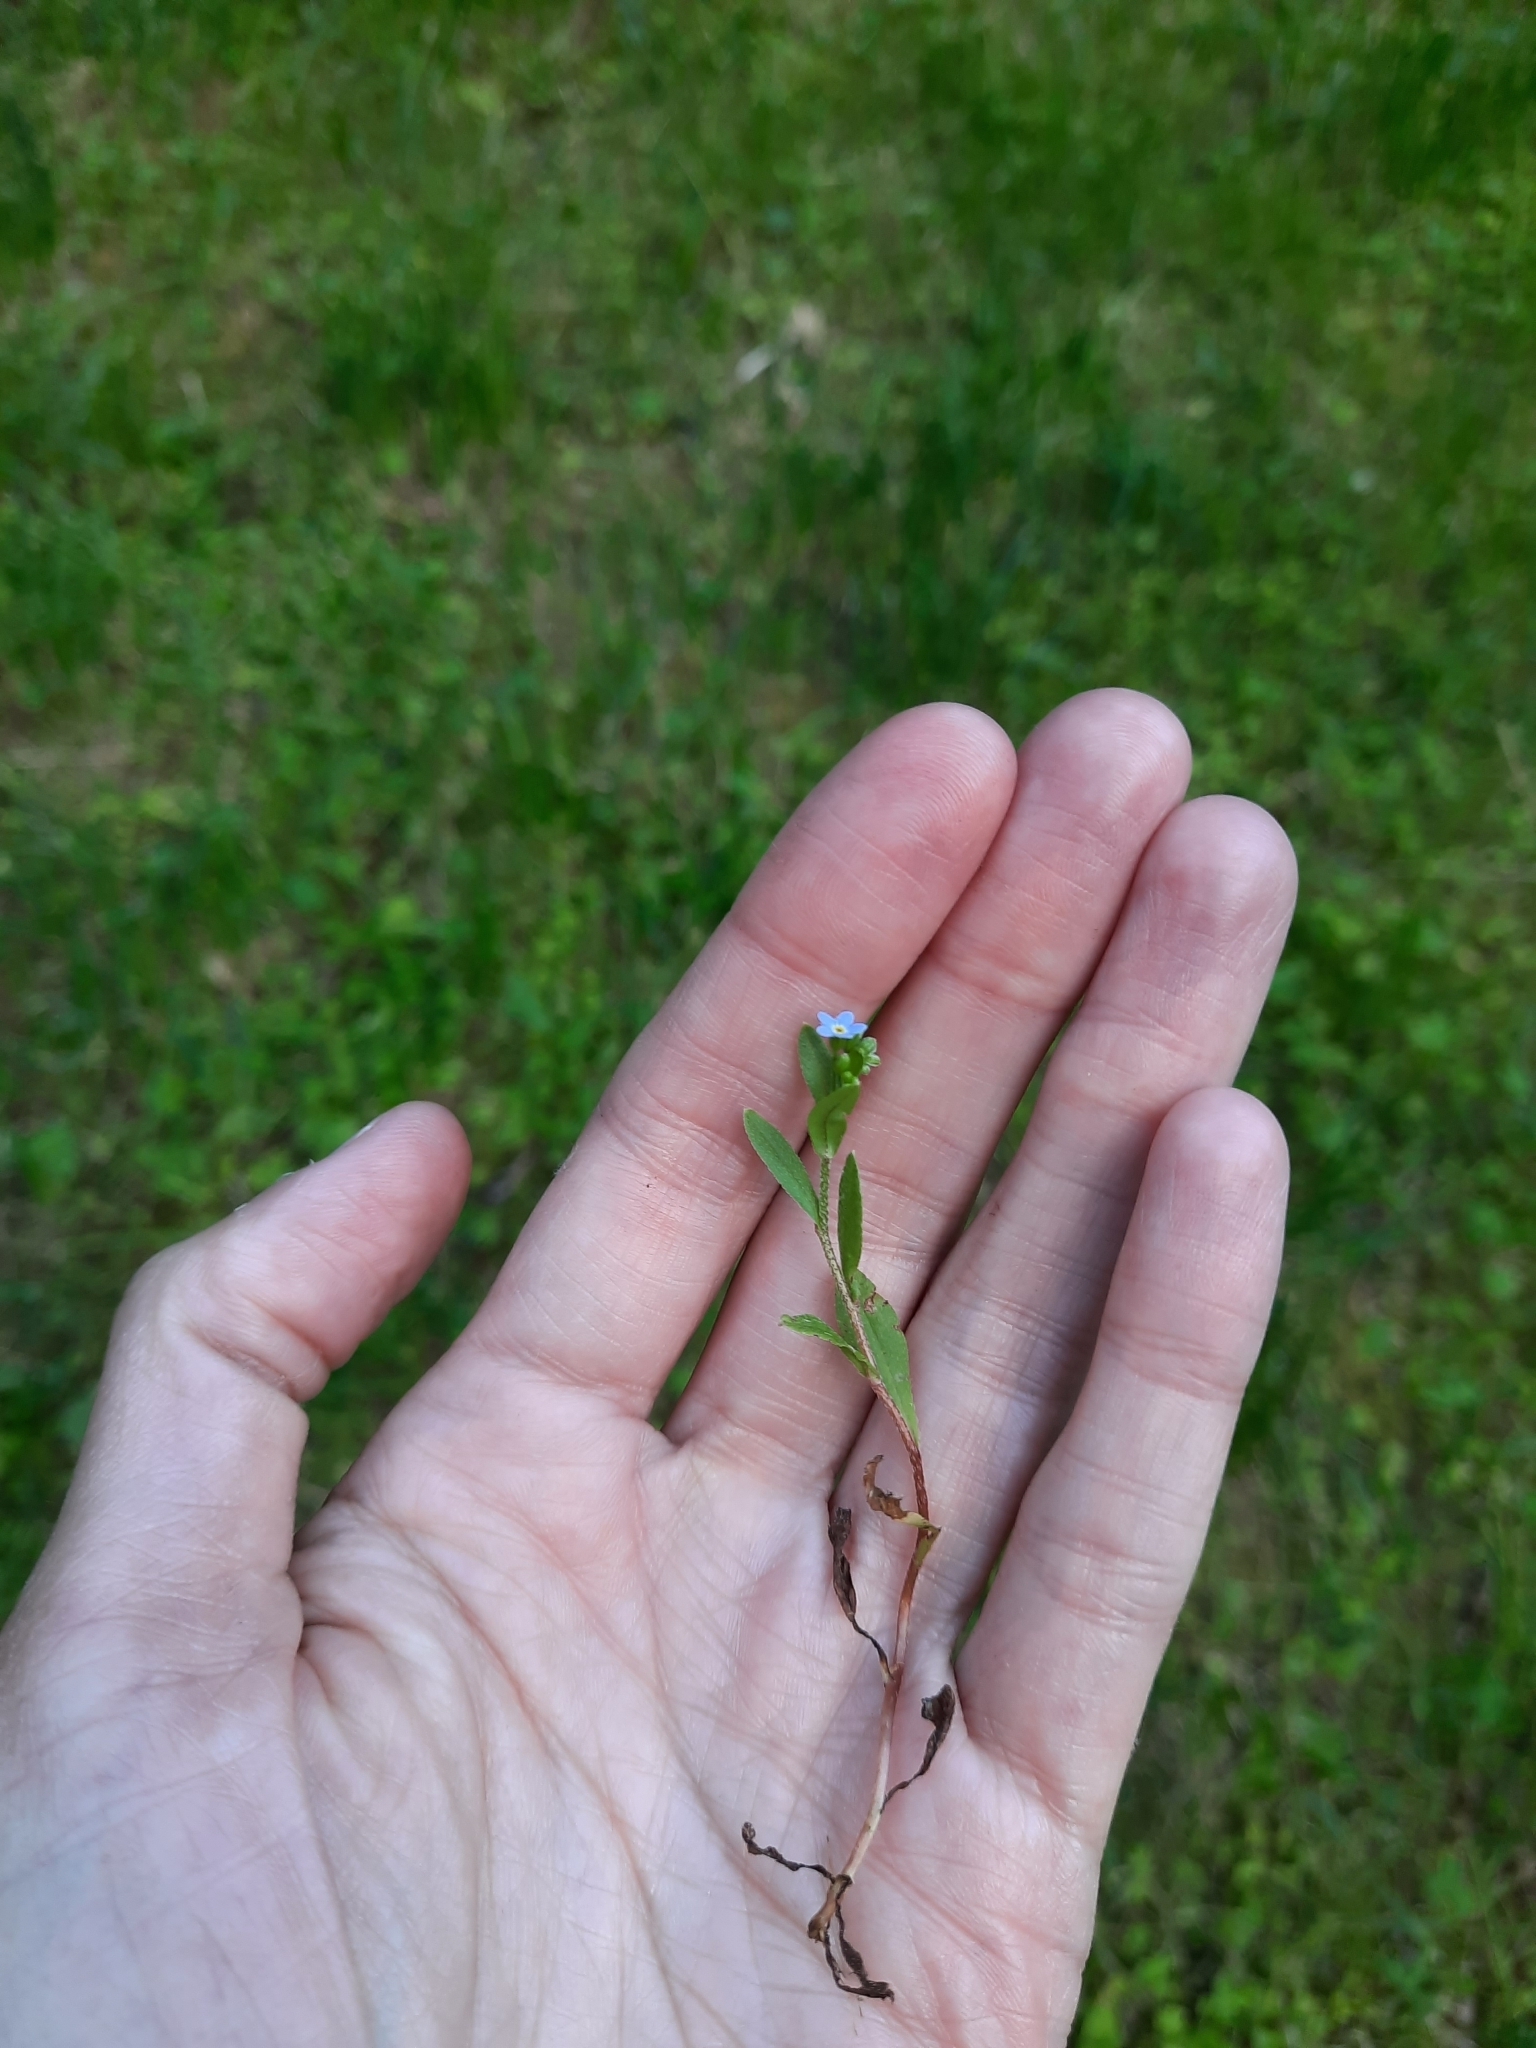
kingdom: Plantae
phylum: Tracheophyta
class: Magnoliopsida
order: Boraginales
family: Boraginaceae
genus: Myosotis
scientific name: Myosotis laxa
